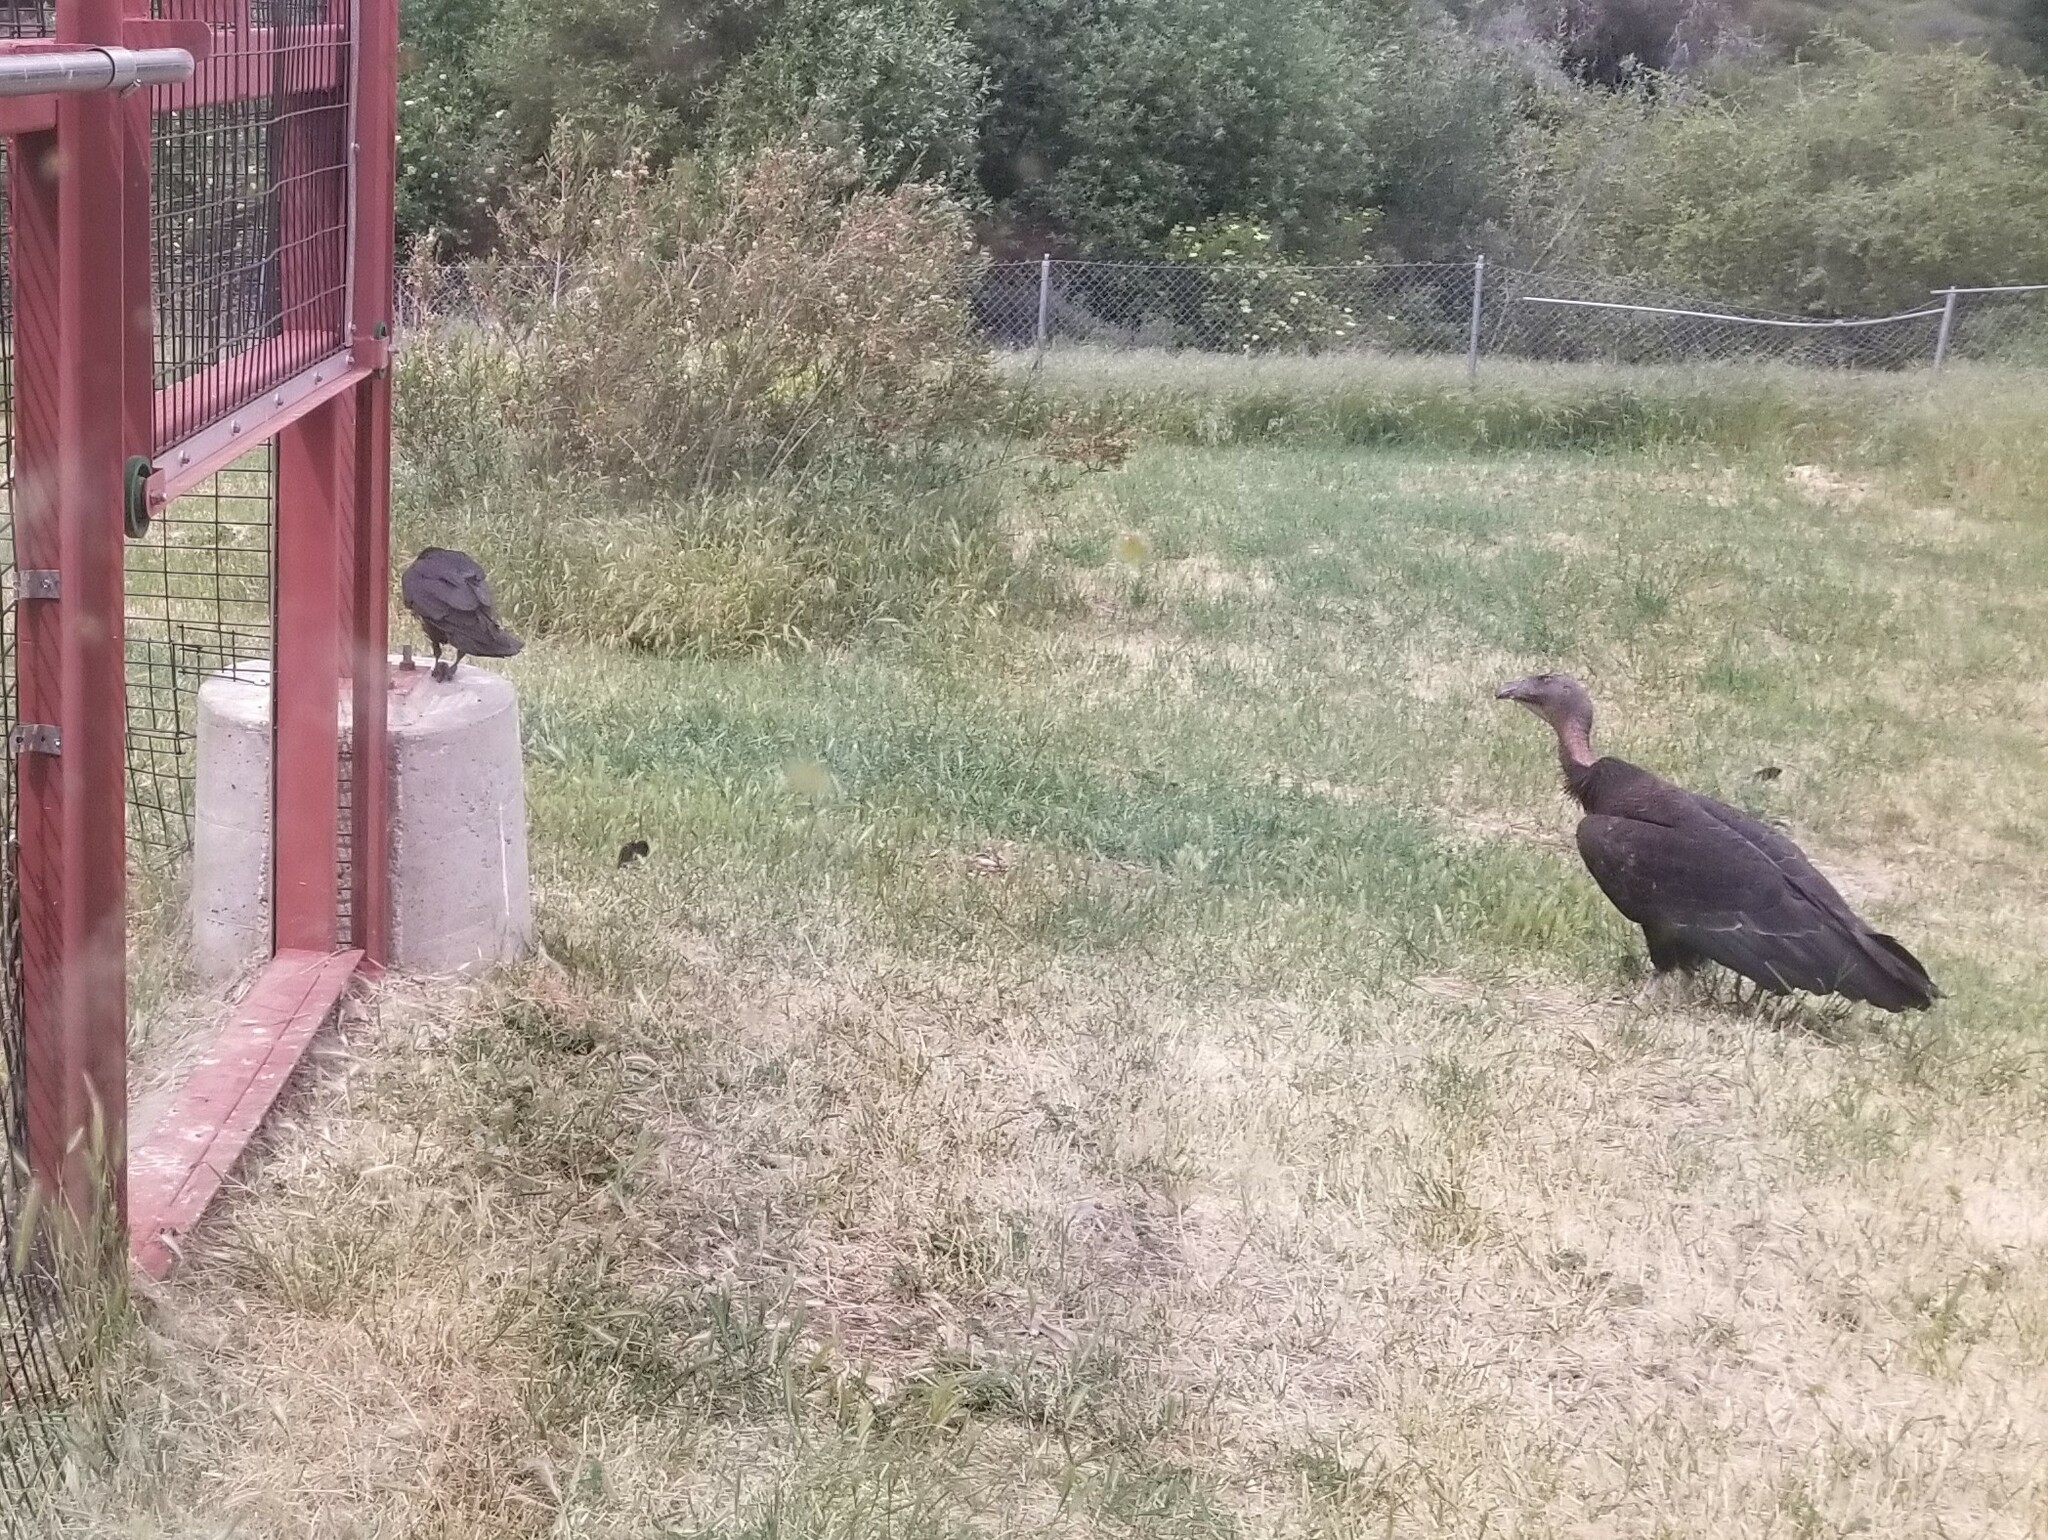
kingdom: Animalia
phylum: Chordata
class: Aves
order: Accipitriformes
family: Cathartidae
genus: Gymnogyps
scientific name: Gymnogyps californianus
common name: California condor
